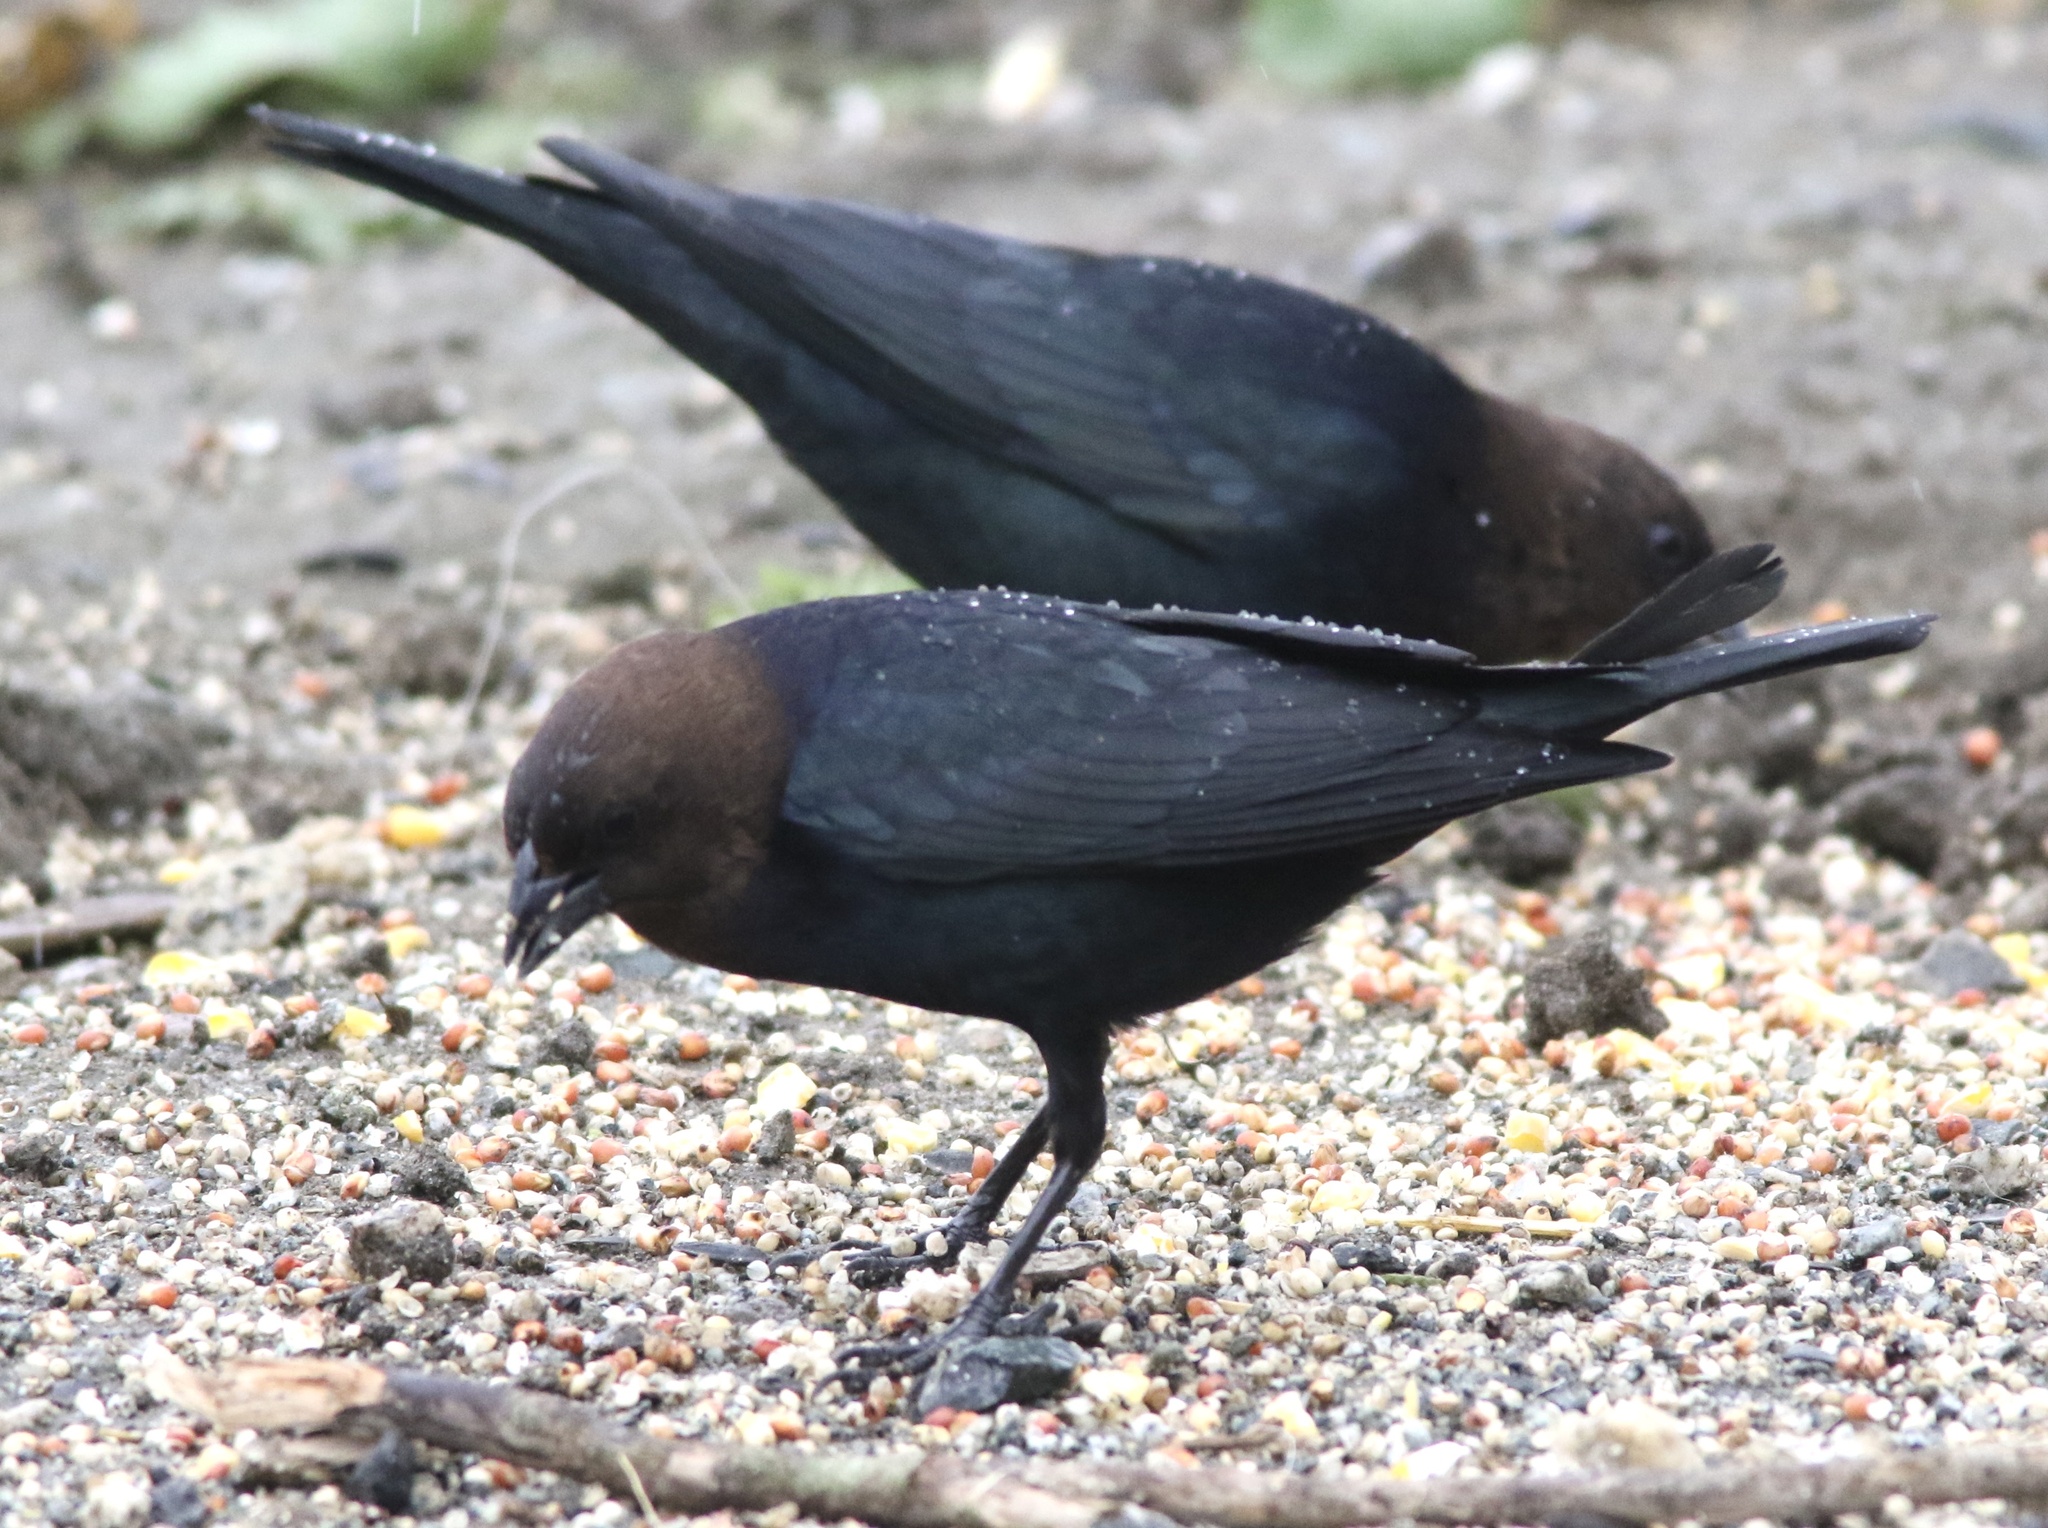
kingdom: Animalia
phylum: Chordata
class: Aves
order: Passeriformes
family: Icteridae
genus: Molothrus
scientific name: Molothrus ater
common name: Brown-headed cowbird
